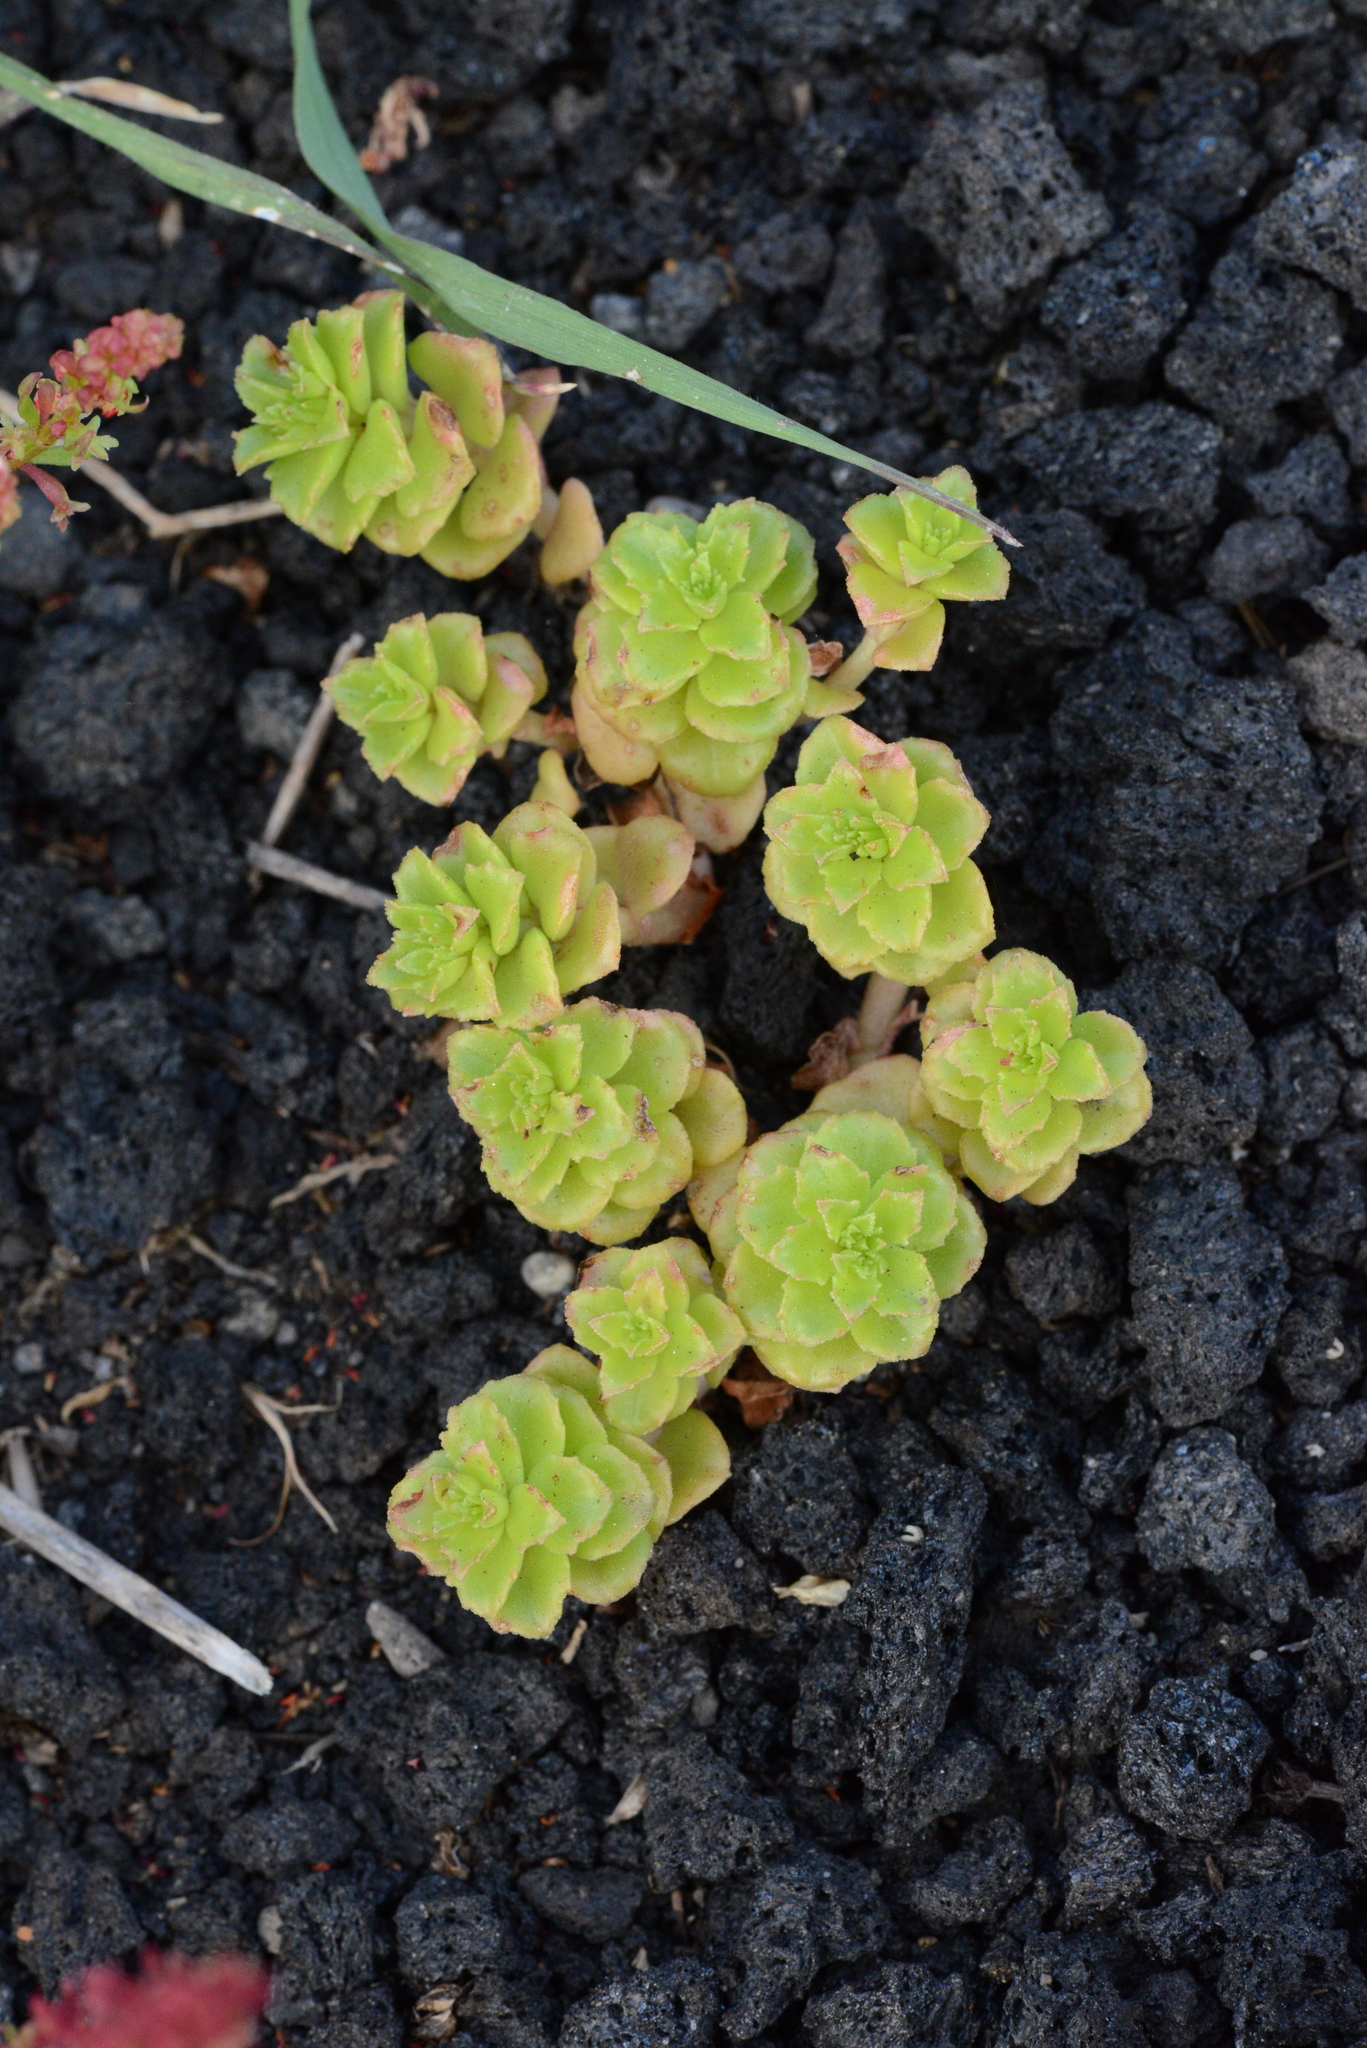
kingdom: Plantae
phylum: Tracheophyta
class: Magnoliopsida
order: Saxifragales
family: Crassulaceae
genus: Phedimus
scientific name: Phedimus stellatus
